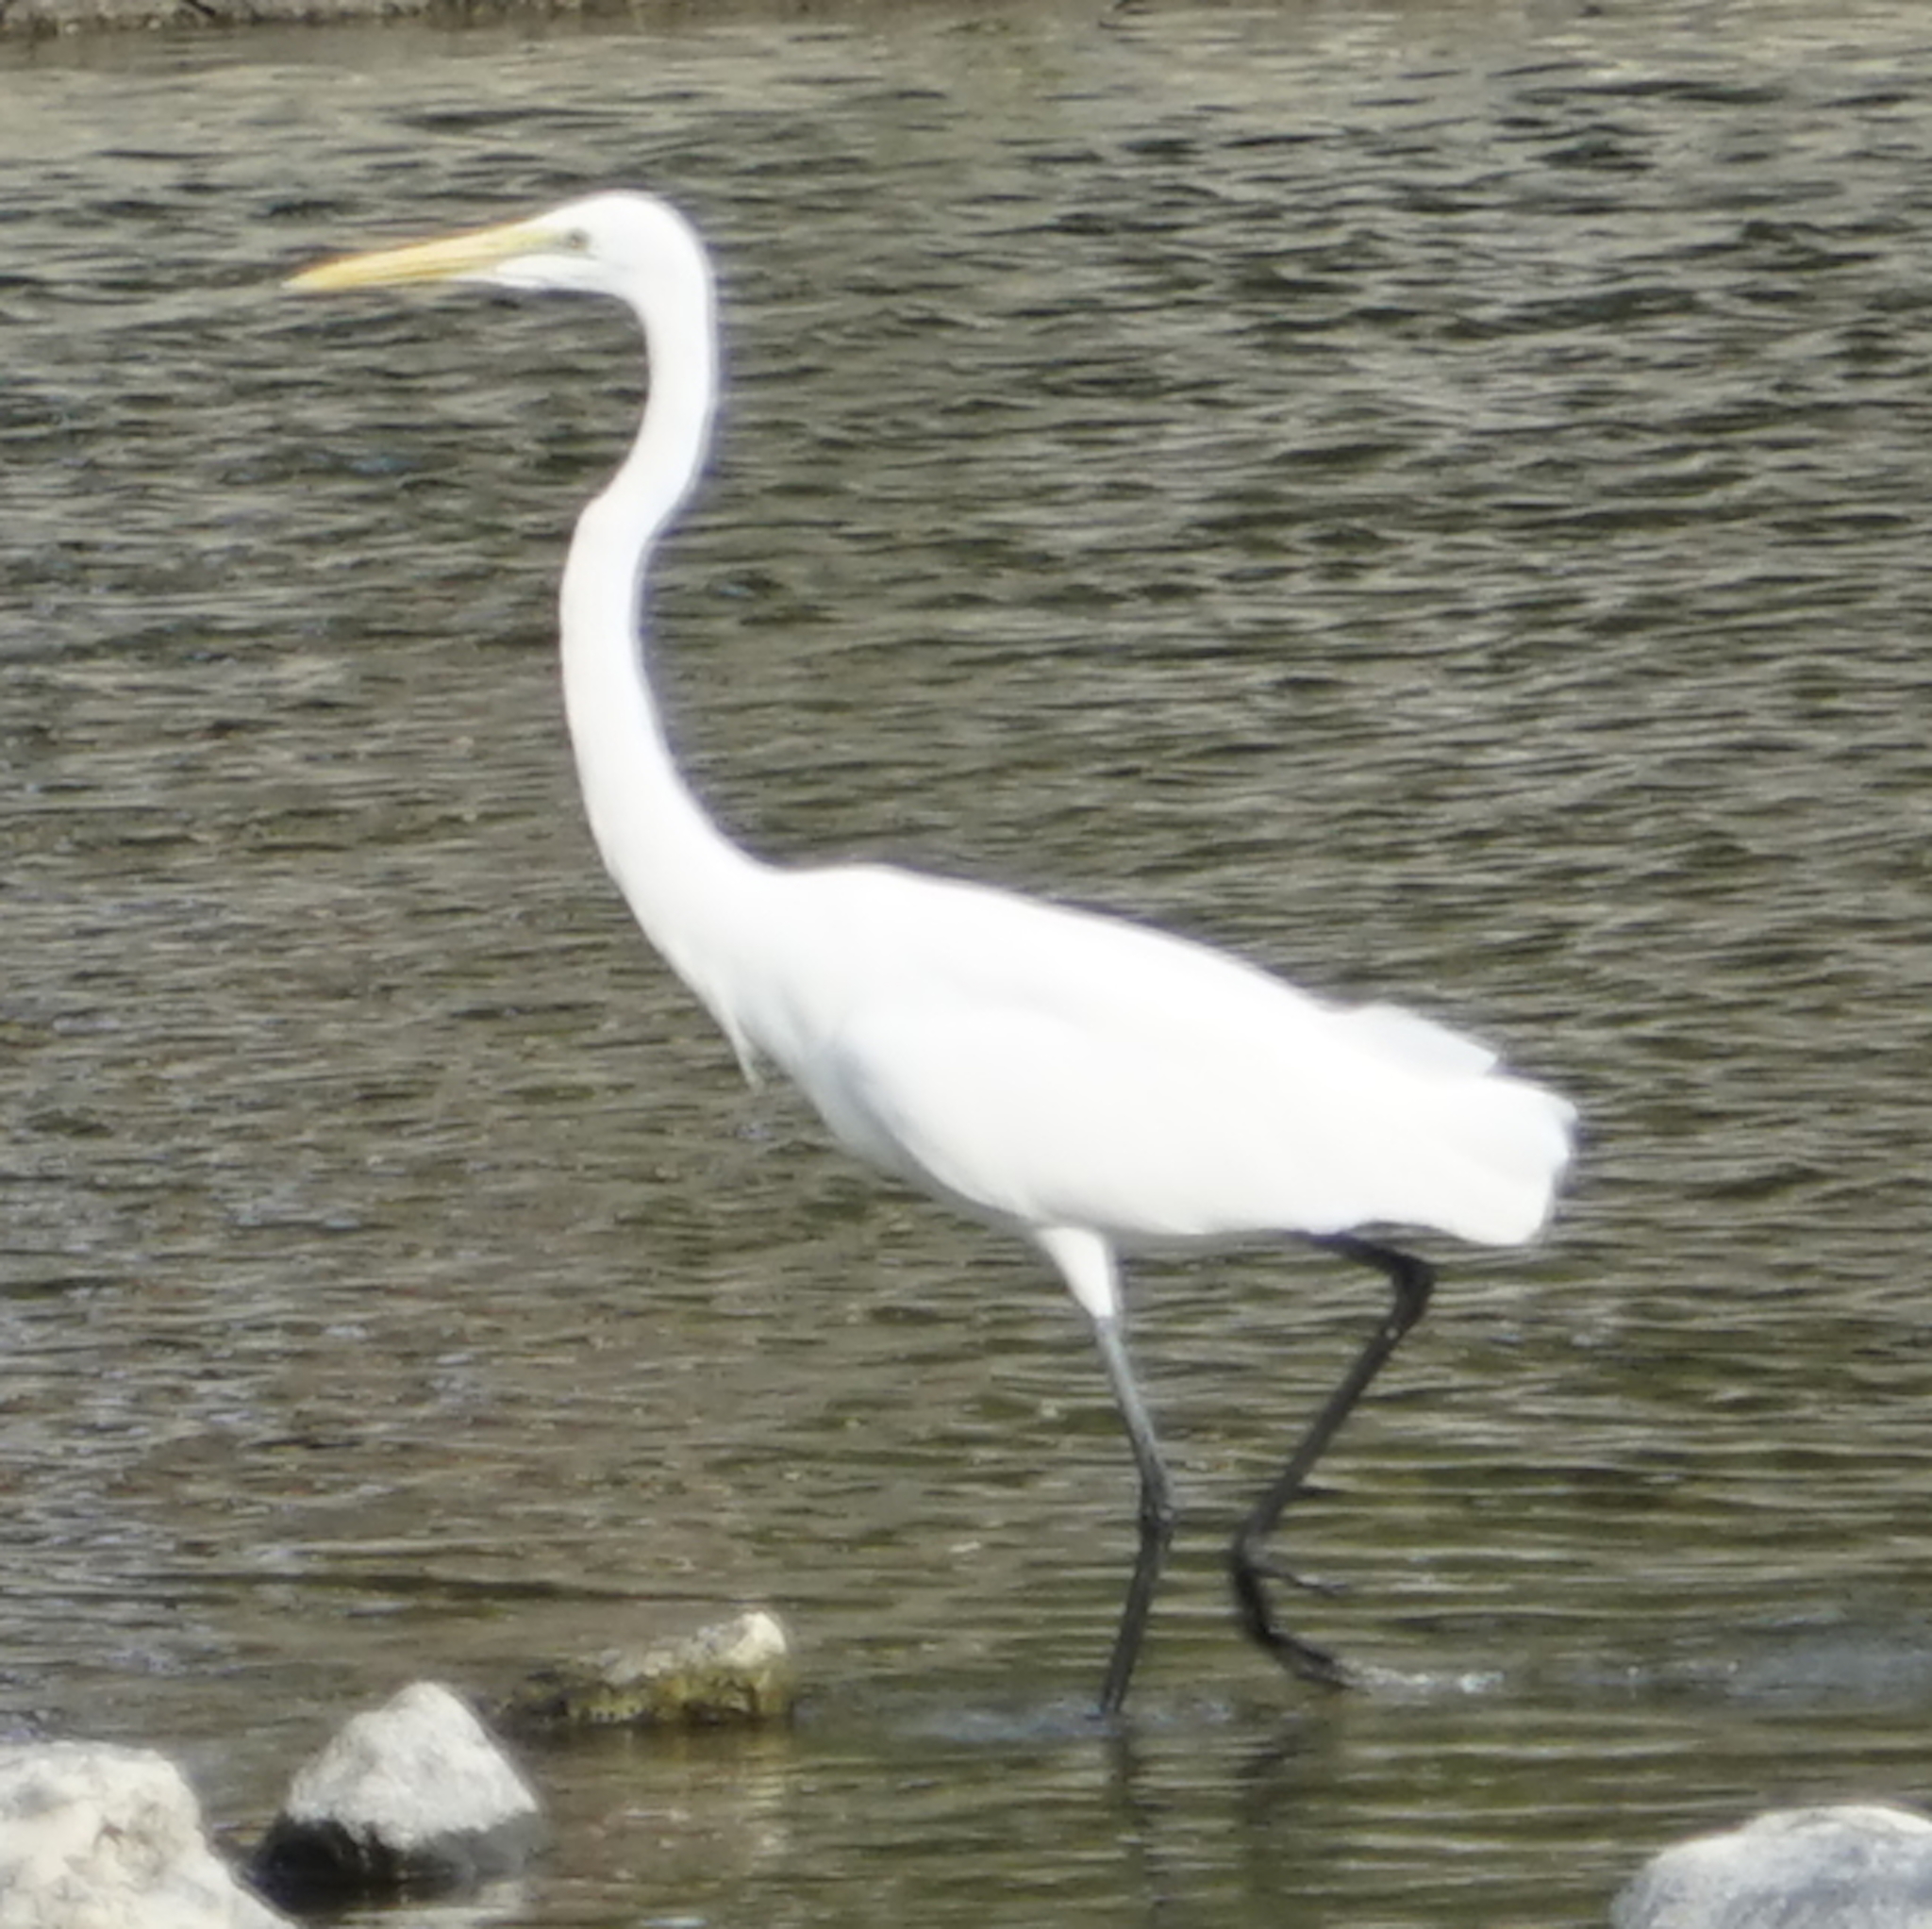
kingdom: Animalia
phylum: Chordata
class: Aves
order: Pelecaniformes
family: Ardeidae
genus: Ardea
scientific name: Ardea alba
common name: Great egret
